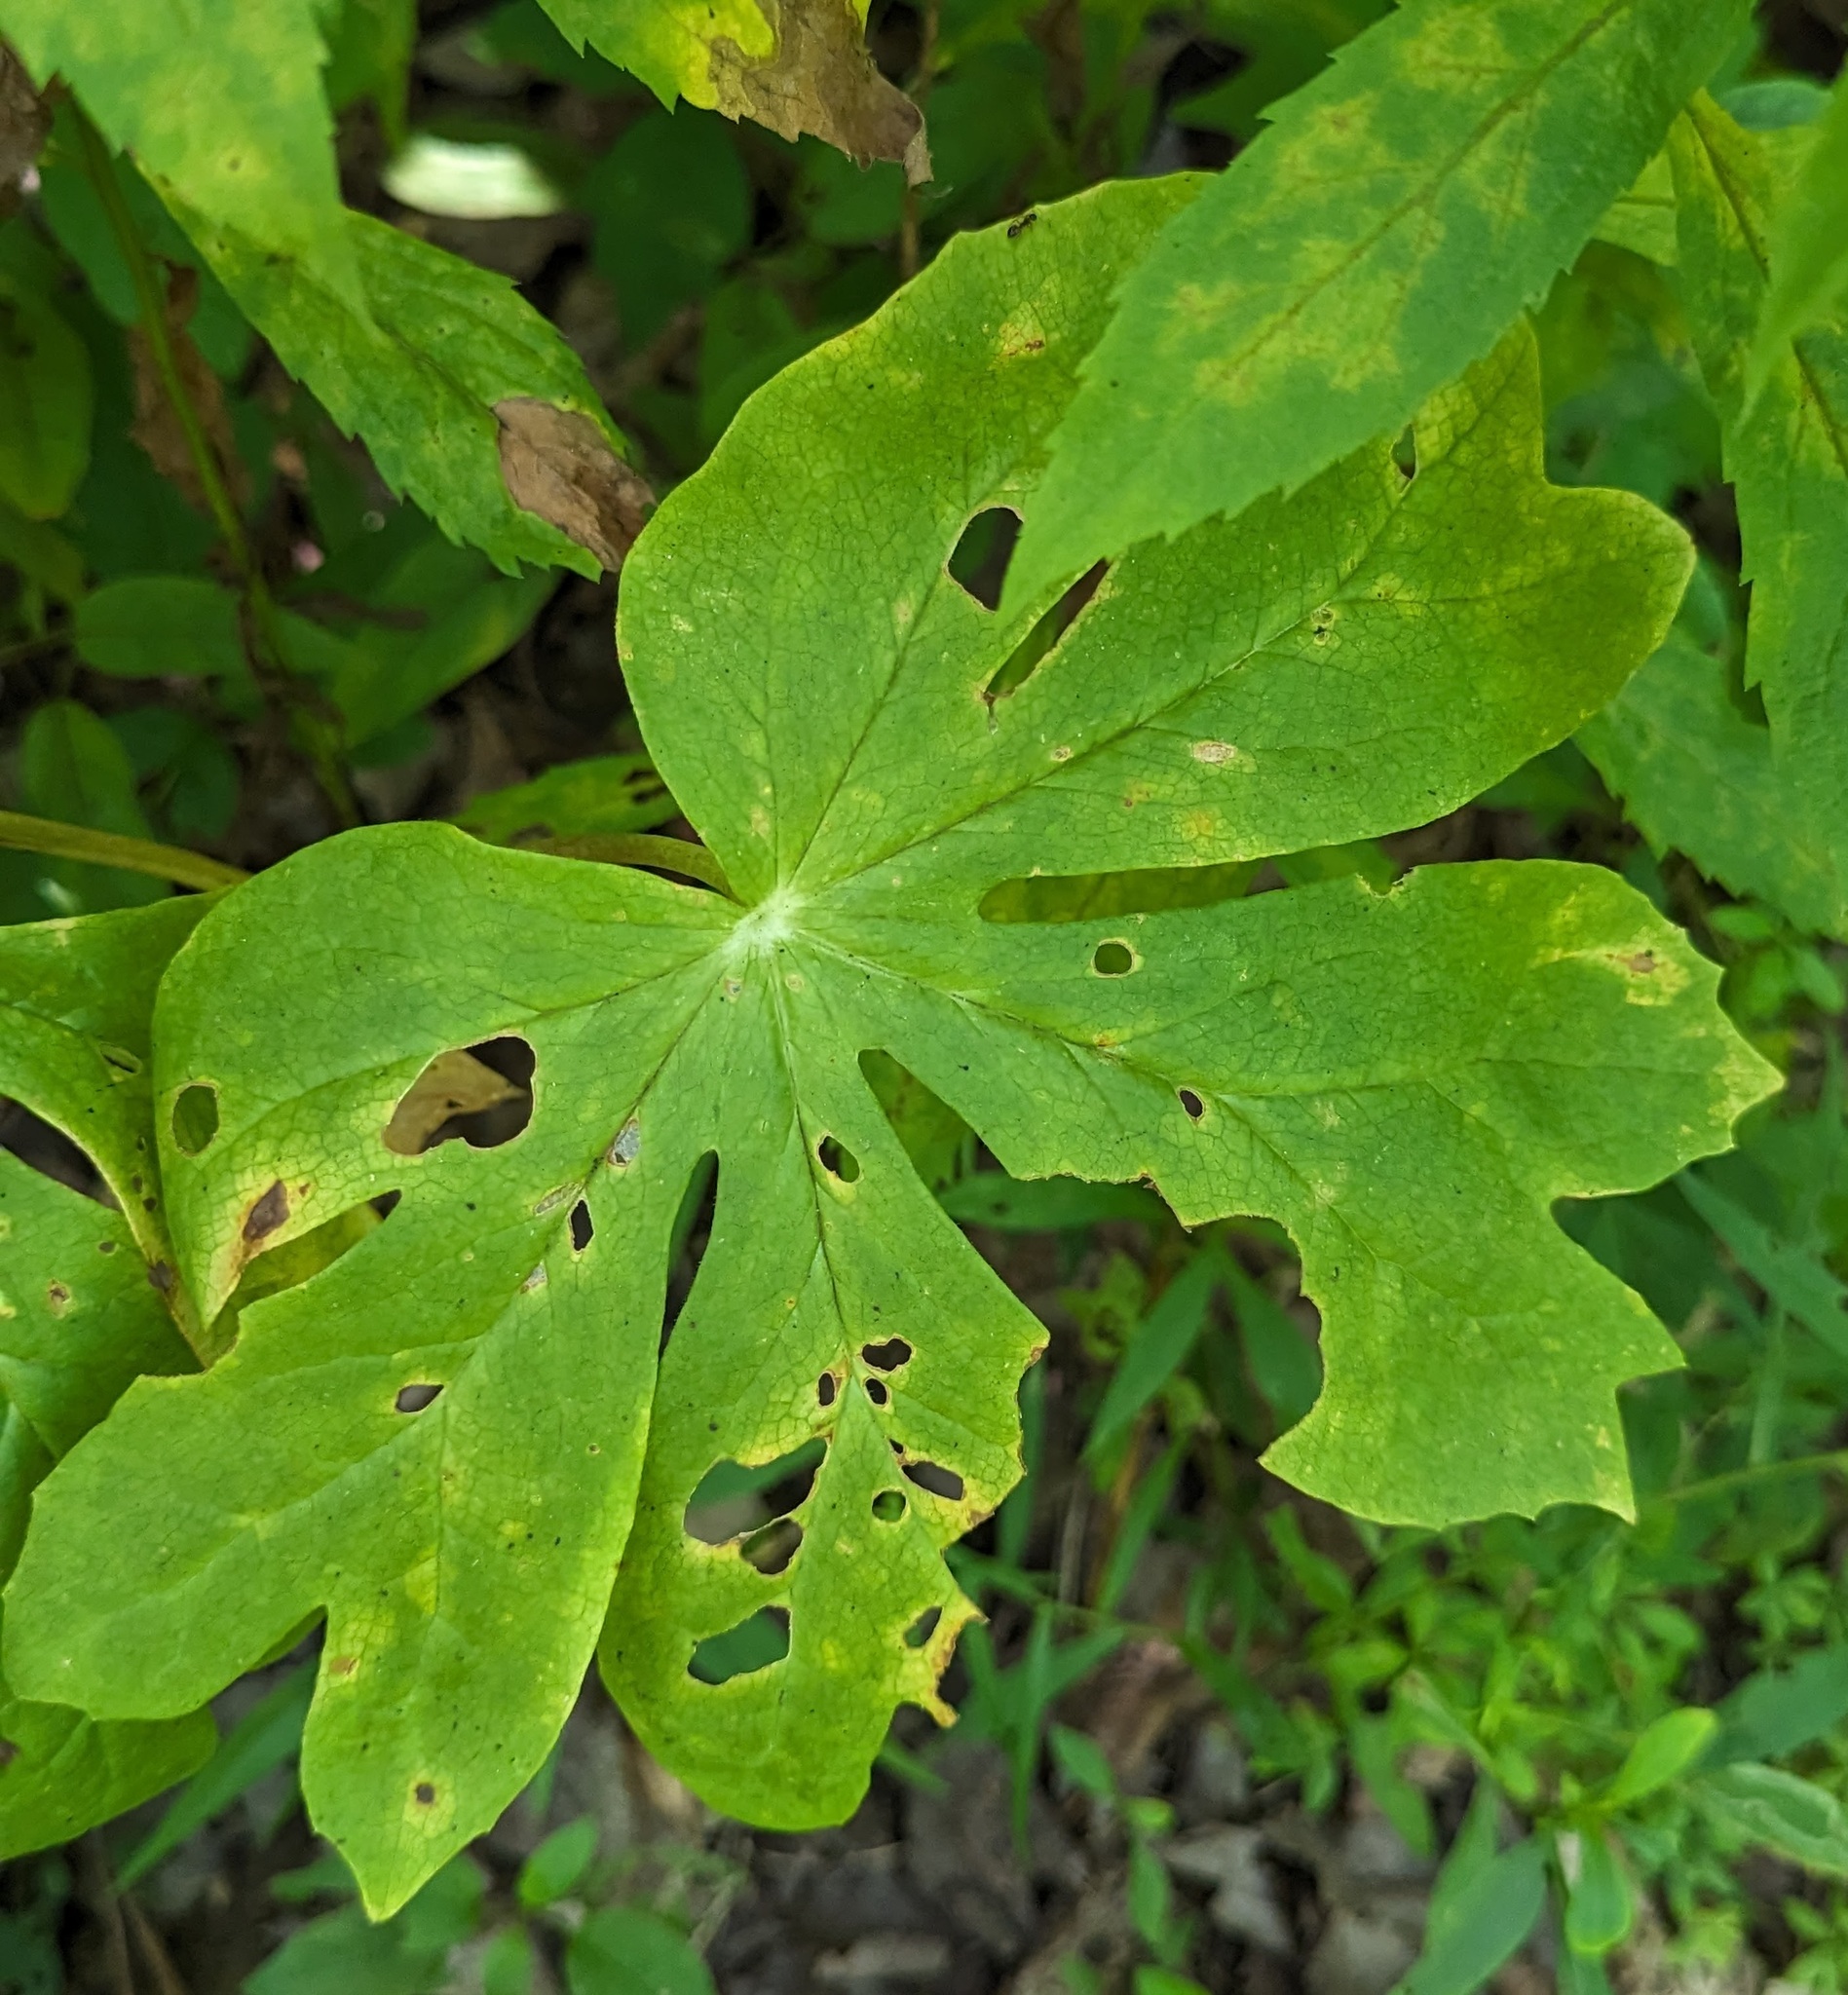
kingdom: Plantae
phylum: Tracheophyta
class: Magnoliopsida
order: Ranunculales
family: Berberidaceae
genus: Podophyllum
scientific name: Podophyllum peltatum
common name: Wild mandrake
